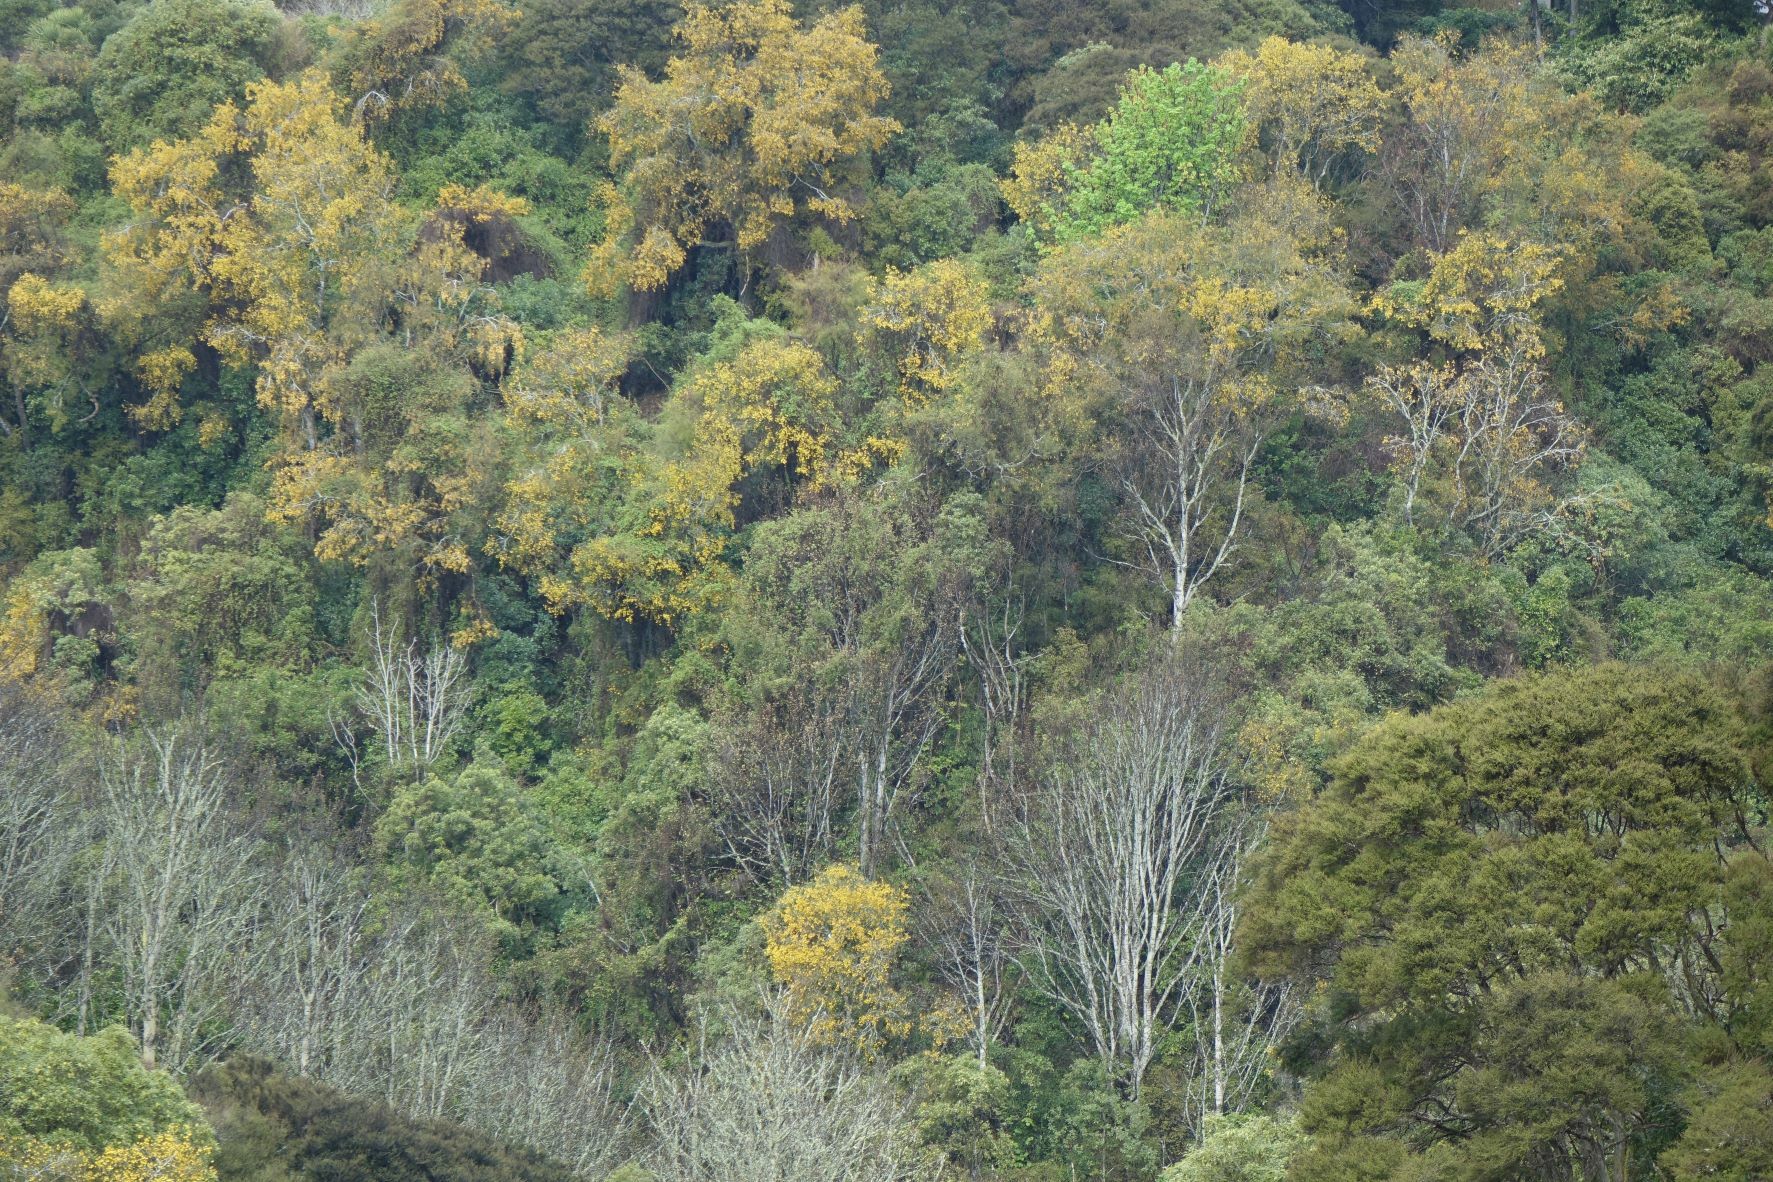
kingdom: Plantae
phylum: Tracheophyta
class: Magnoliopsida
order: Fabales
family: Fabaceae
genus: Sophora
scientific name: Sophora microphylla
